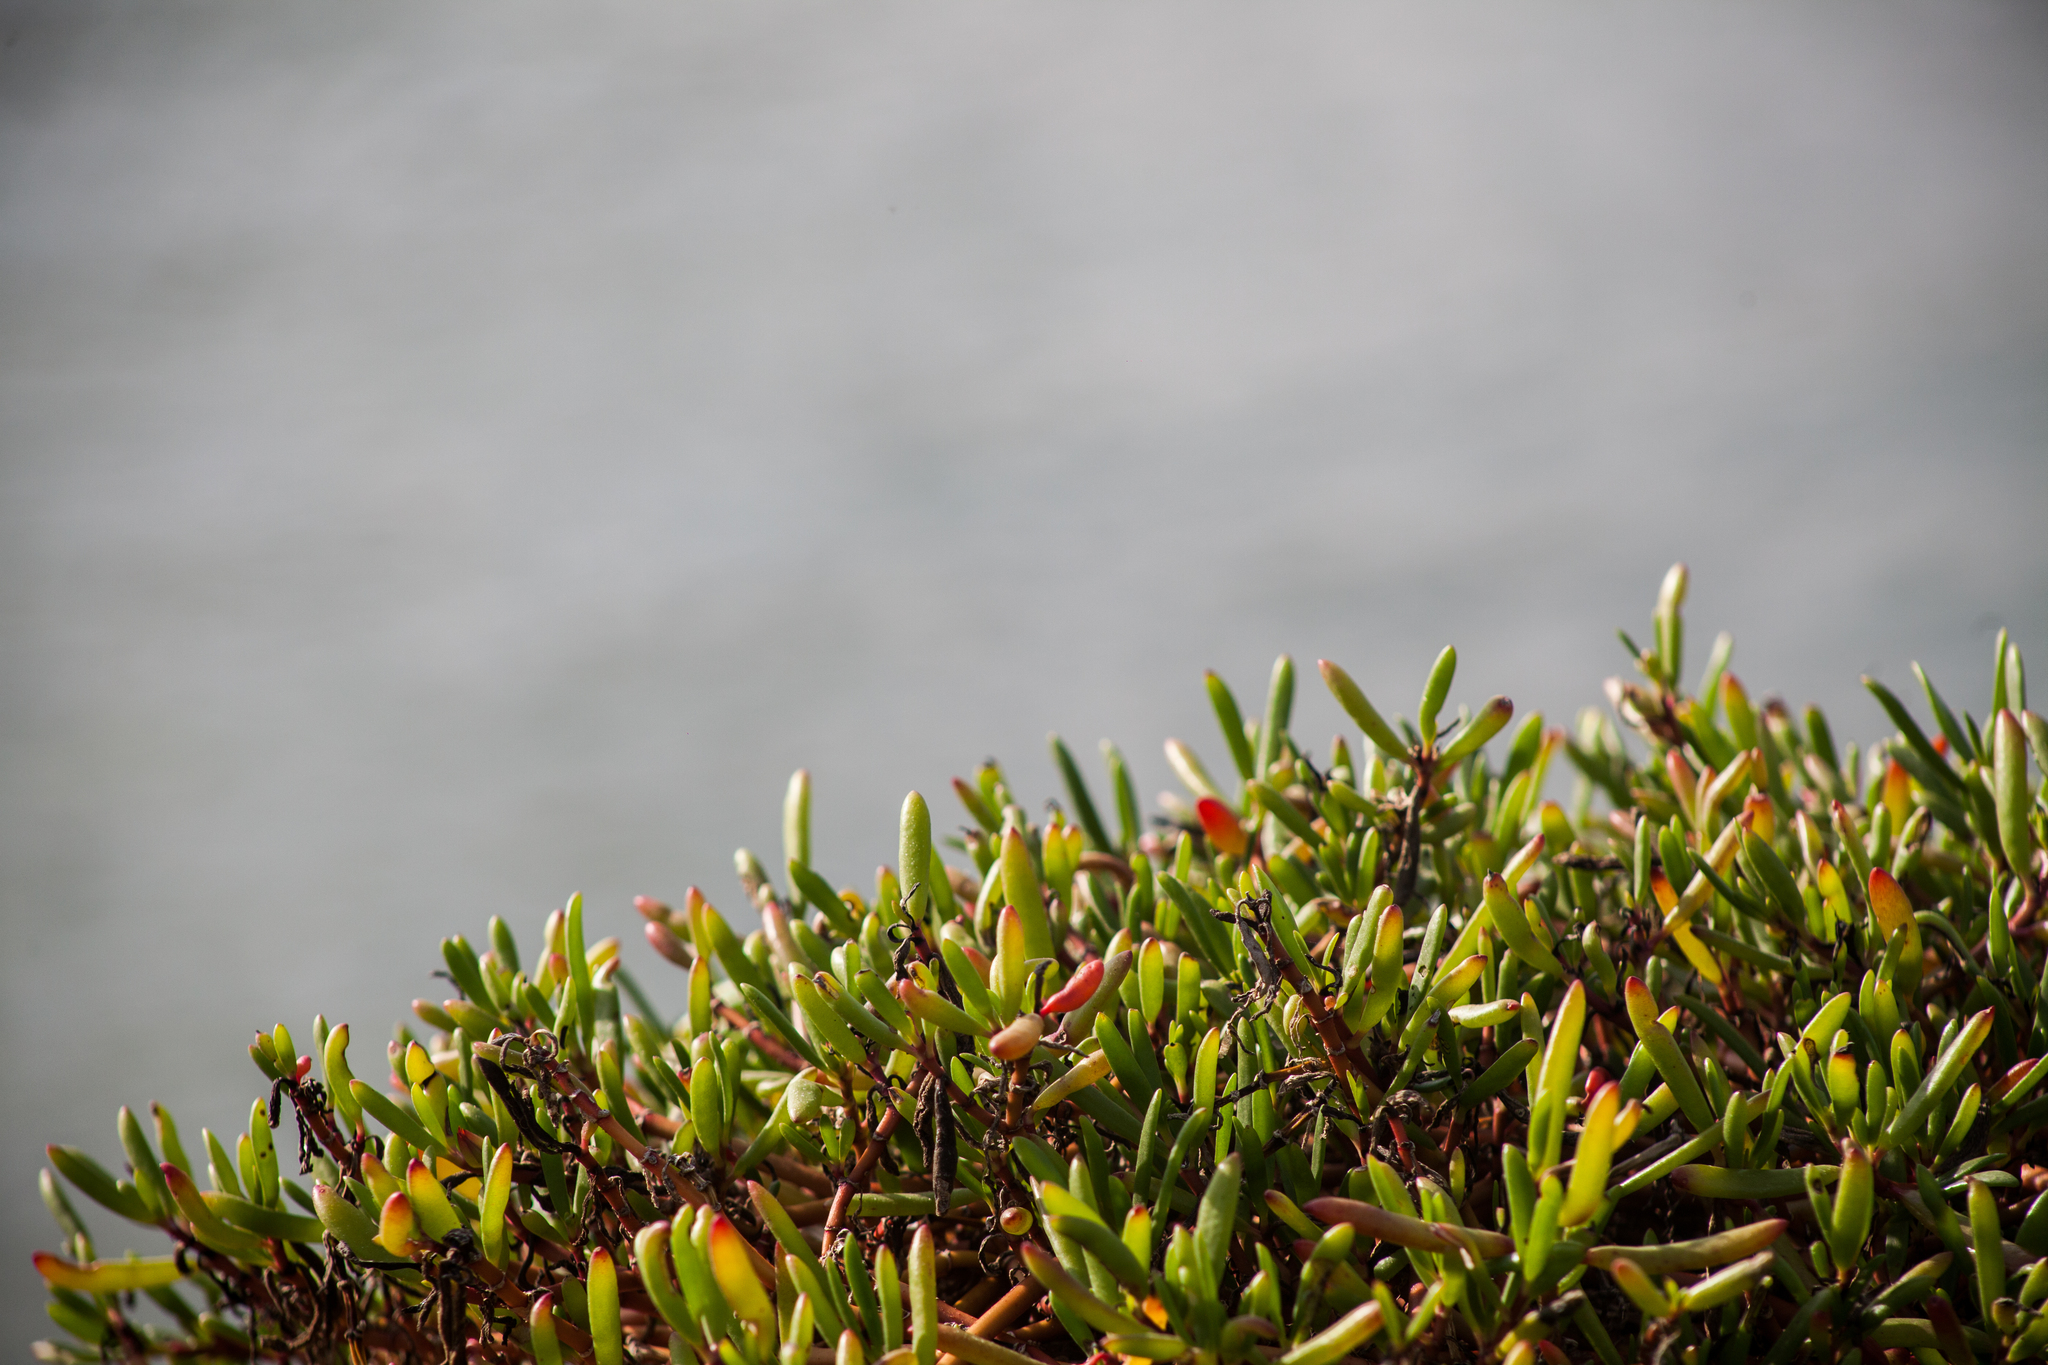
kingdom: Plantae
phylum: Tracheophyta
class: Magnoliopsida
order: Caryophyllales
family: Aizoaceae
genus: Sesuvium
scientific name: Sesuvium portulacastrum
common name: Sea-purslane
